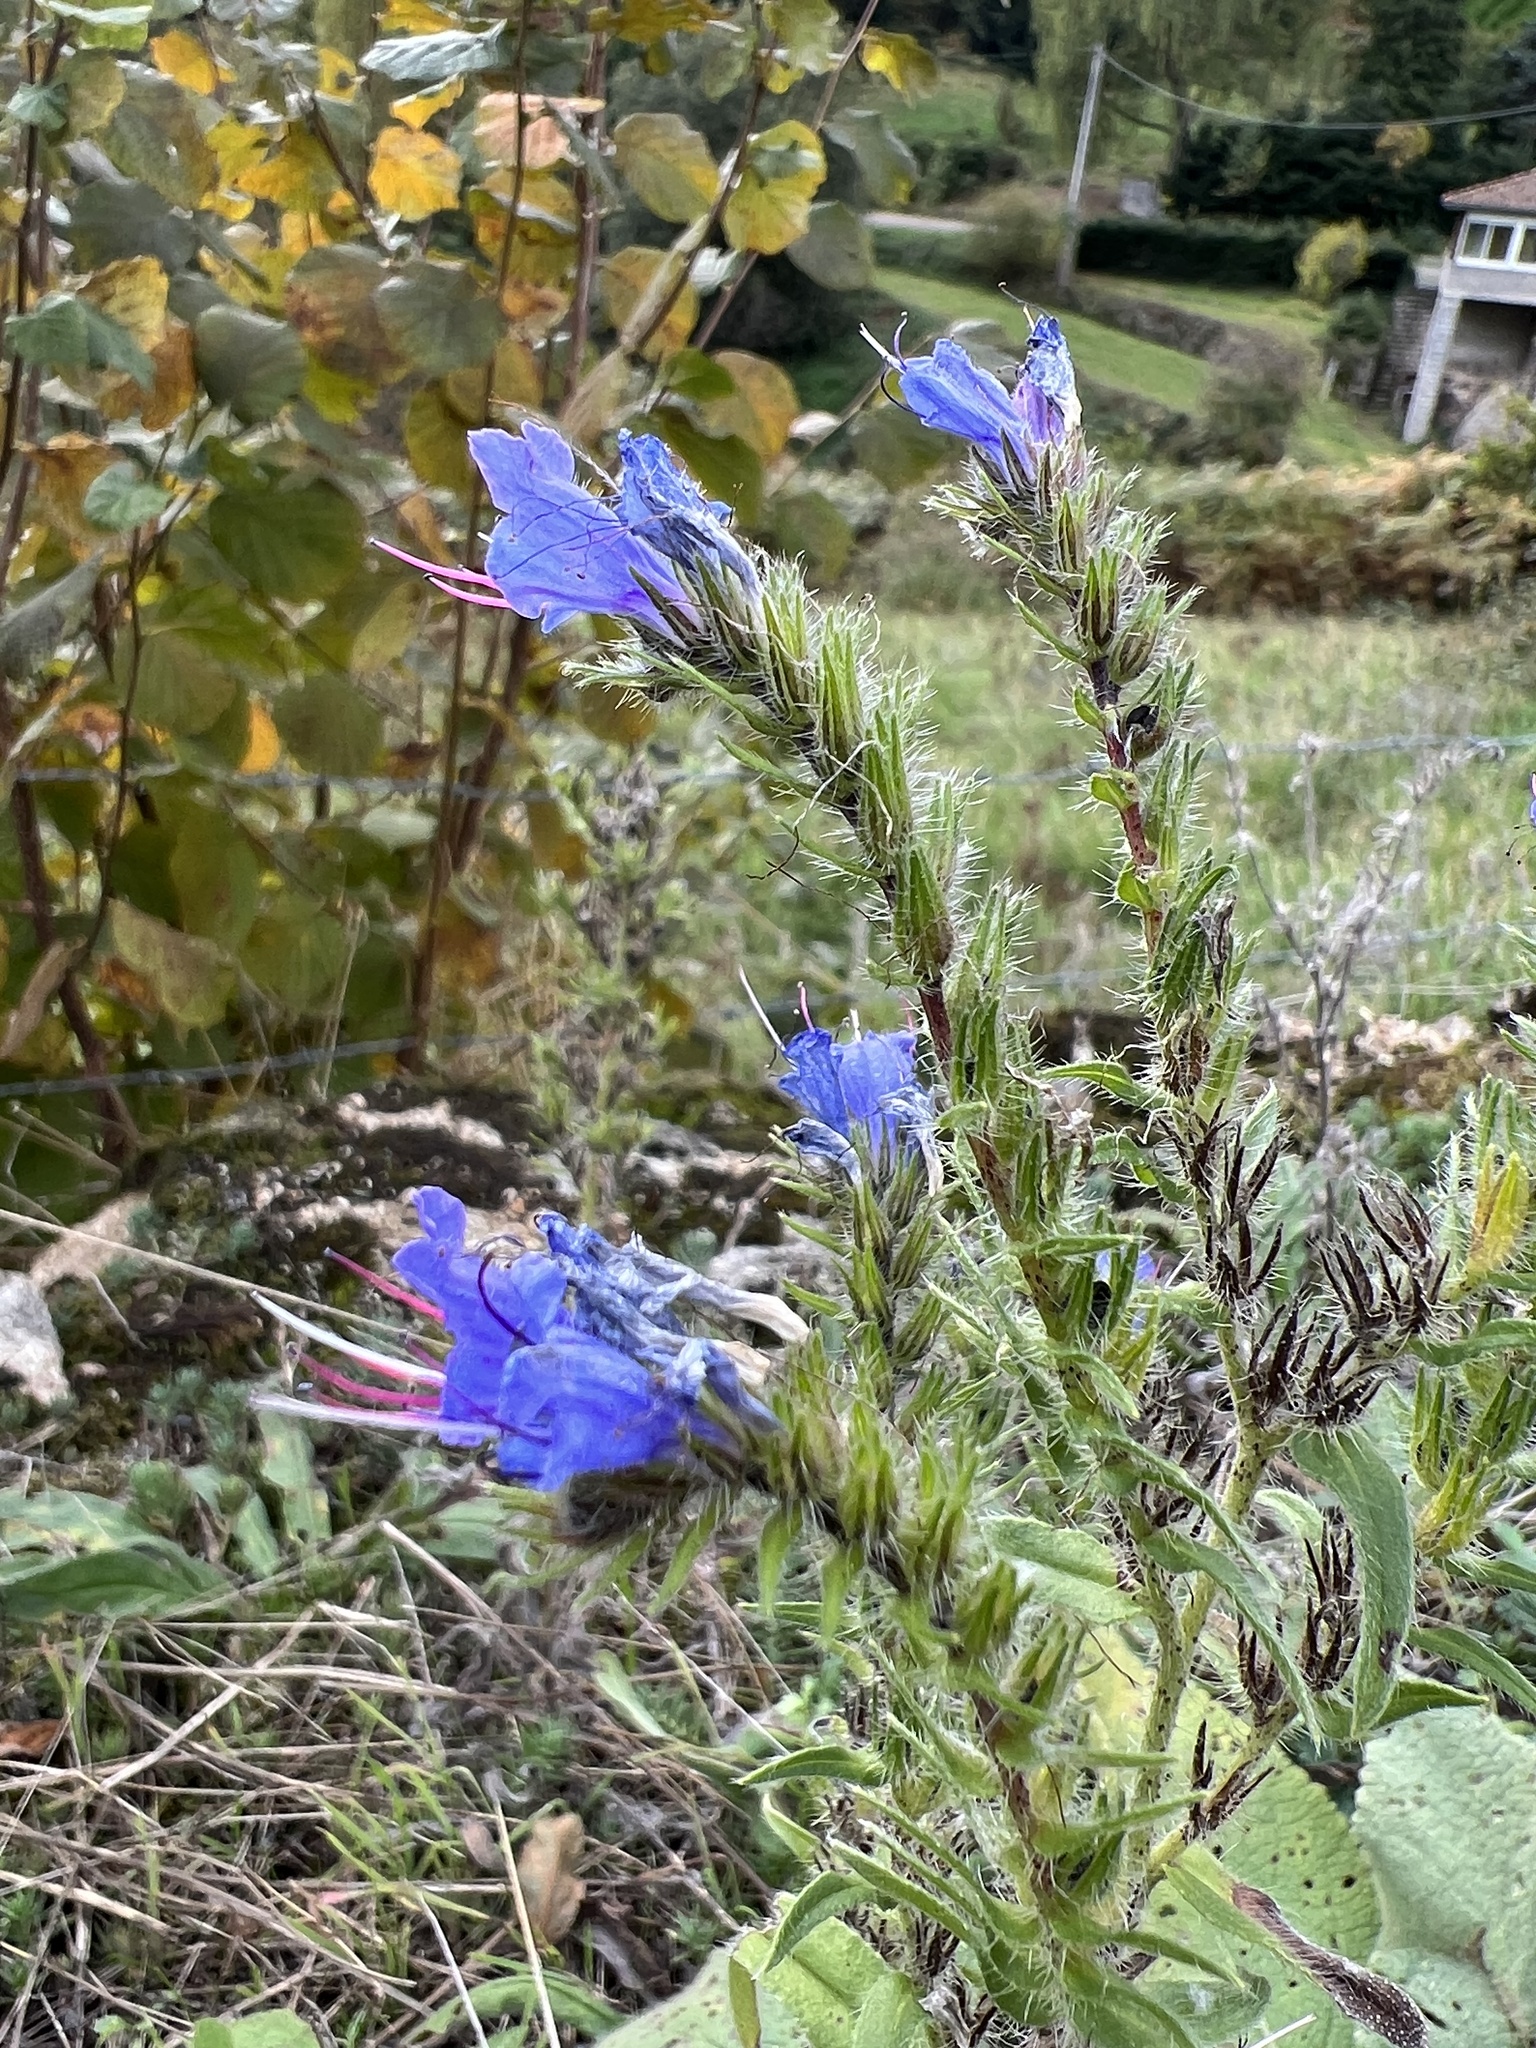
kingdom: Plantae
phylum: Tracheophyta
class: Magnoliopsida
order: Boraginales
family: Boraginaceae
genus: Echium
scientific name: Echium vulgare
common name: Common viper's bugloss
